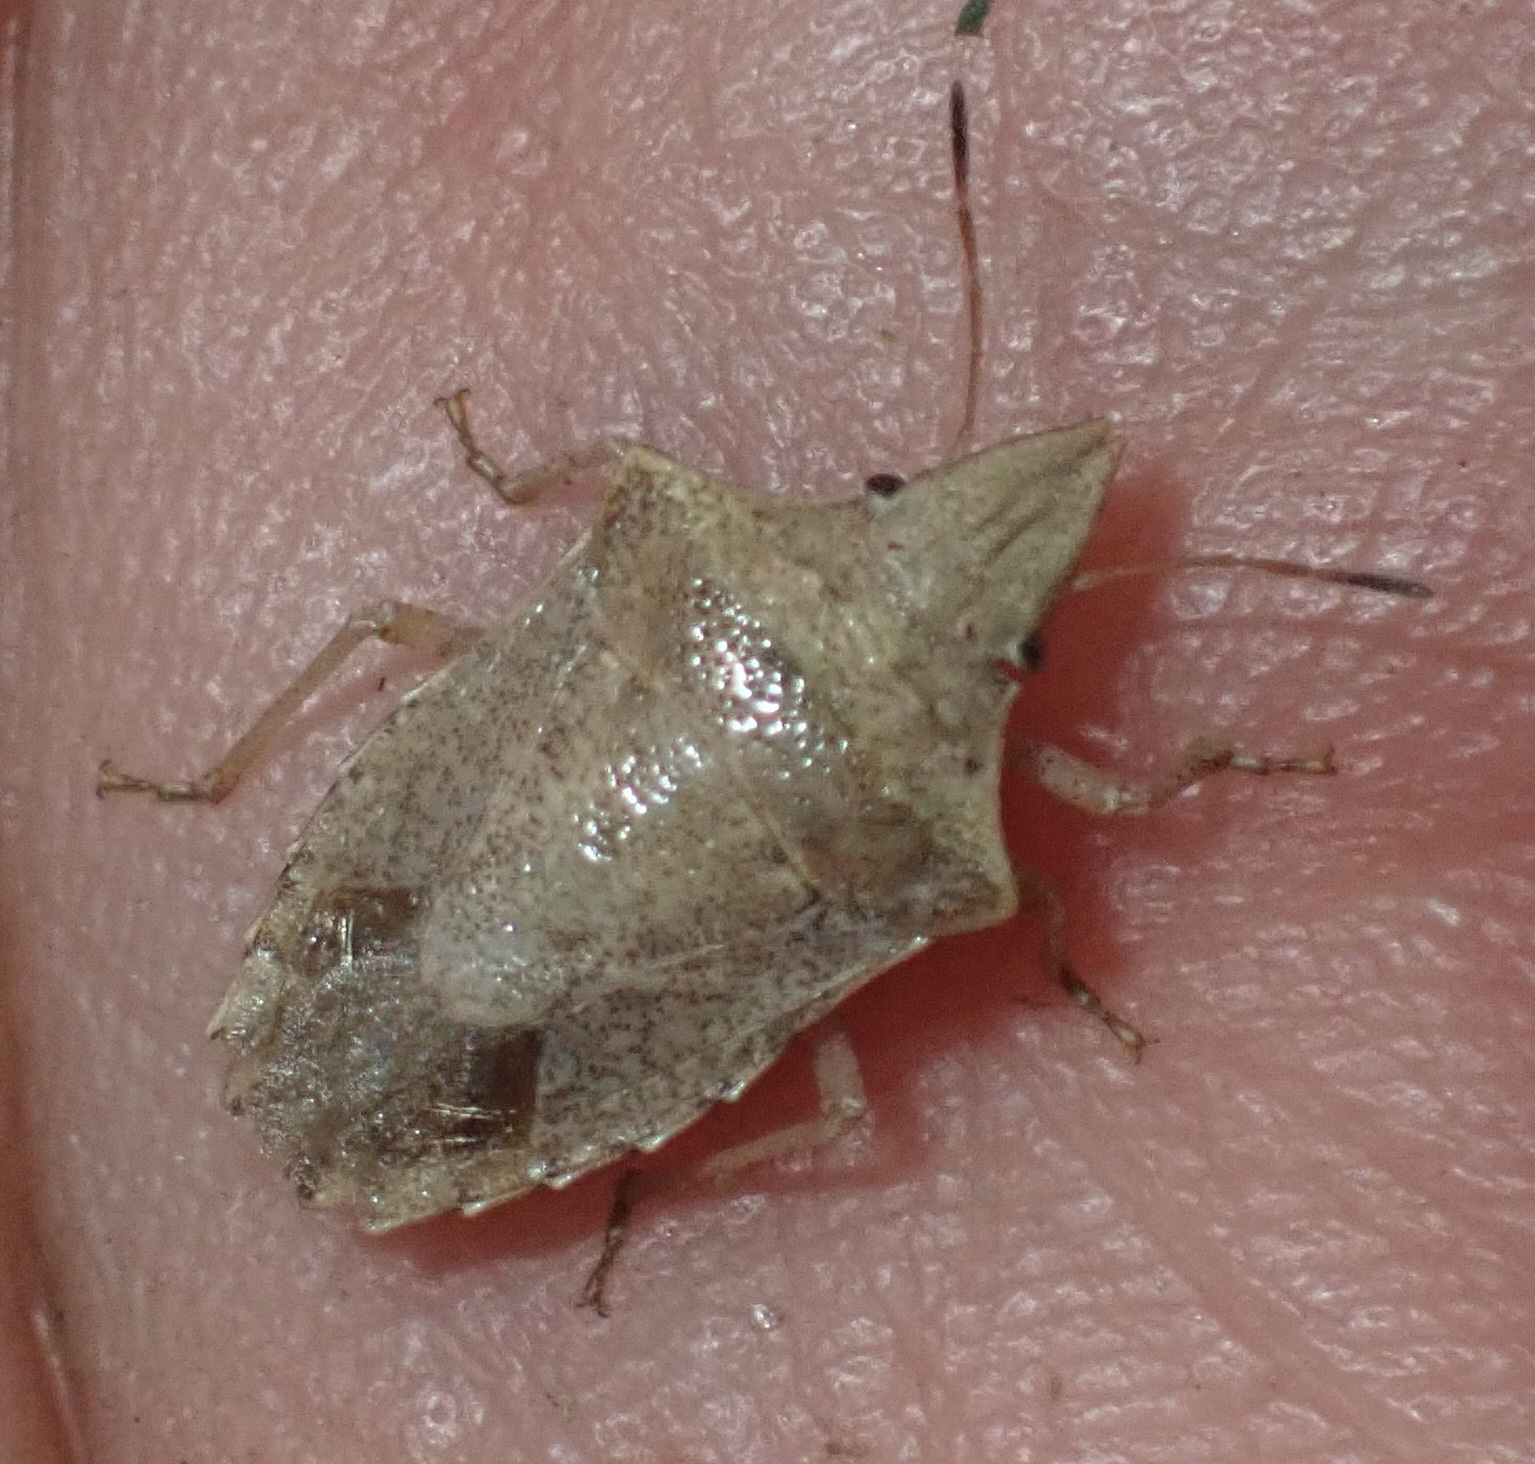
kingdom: Animalia
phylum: Arthropoda
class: Insecta
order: Hemiptera
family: Pentatomidae
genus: Diploxys
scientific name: Diploxys
